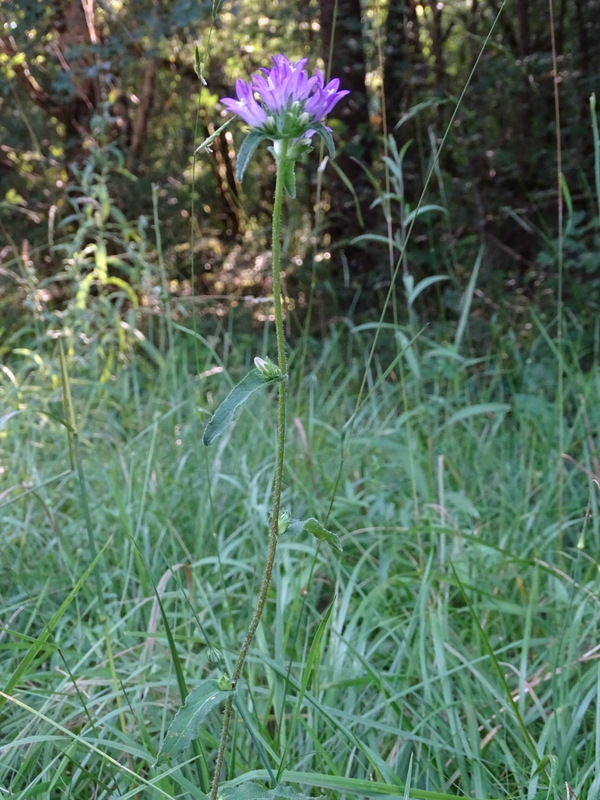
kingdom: Plantae
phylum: Tracheophyta
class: Magnoliopsida
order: Asterales
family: Campanulaceae
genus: Campanula
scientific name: Campanula glomerata
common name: Clustered bellflower
